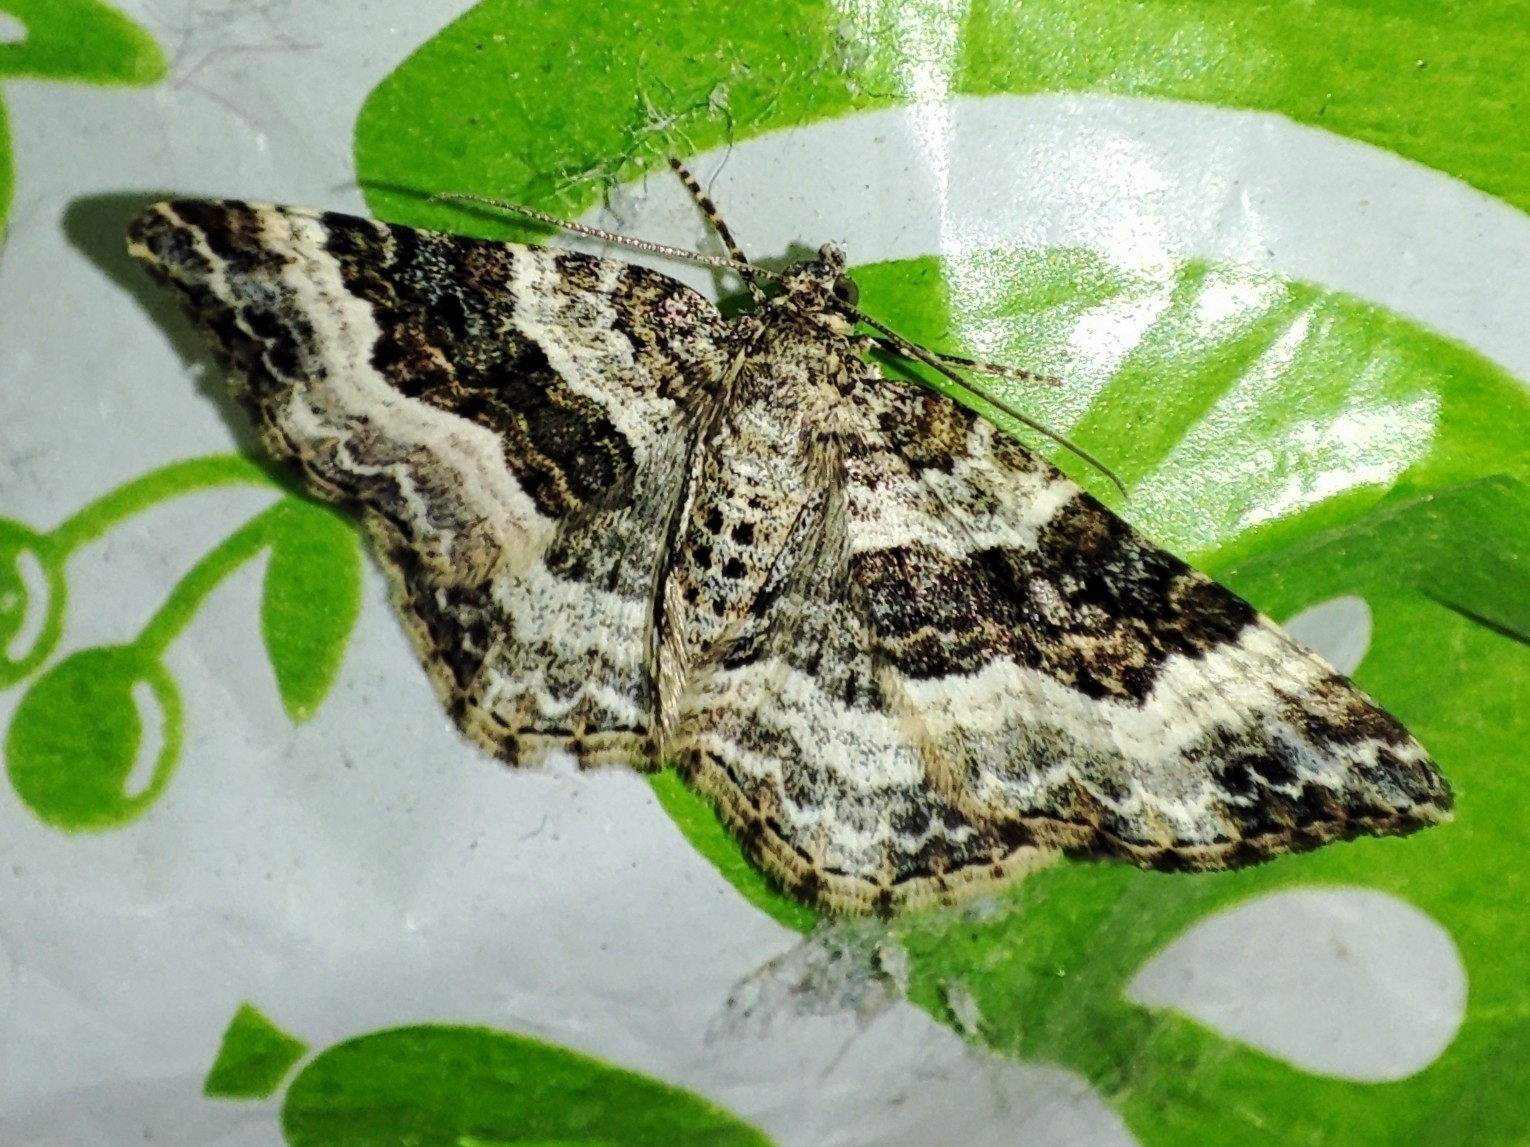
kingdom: Animalia
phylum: Arthropoda
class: Insecta
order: Lepidoptera
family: Geometridae
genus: Epirrhoe
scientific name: Epirrhoe alternata
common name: Common carpet
